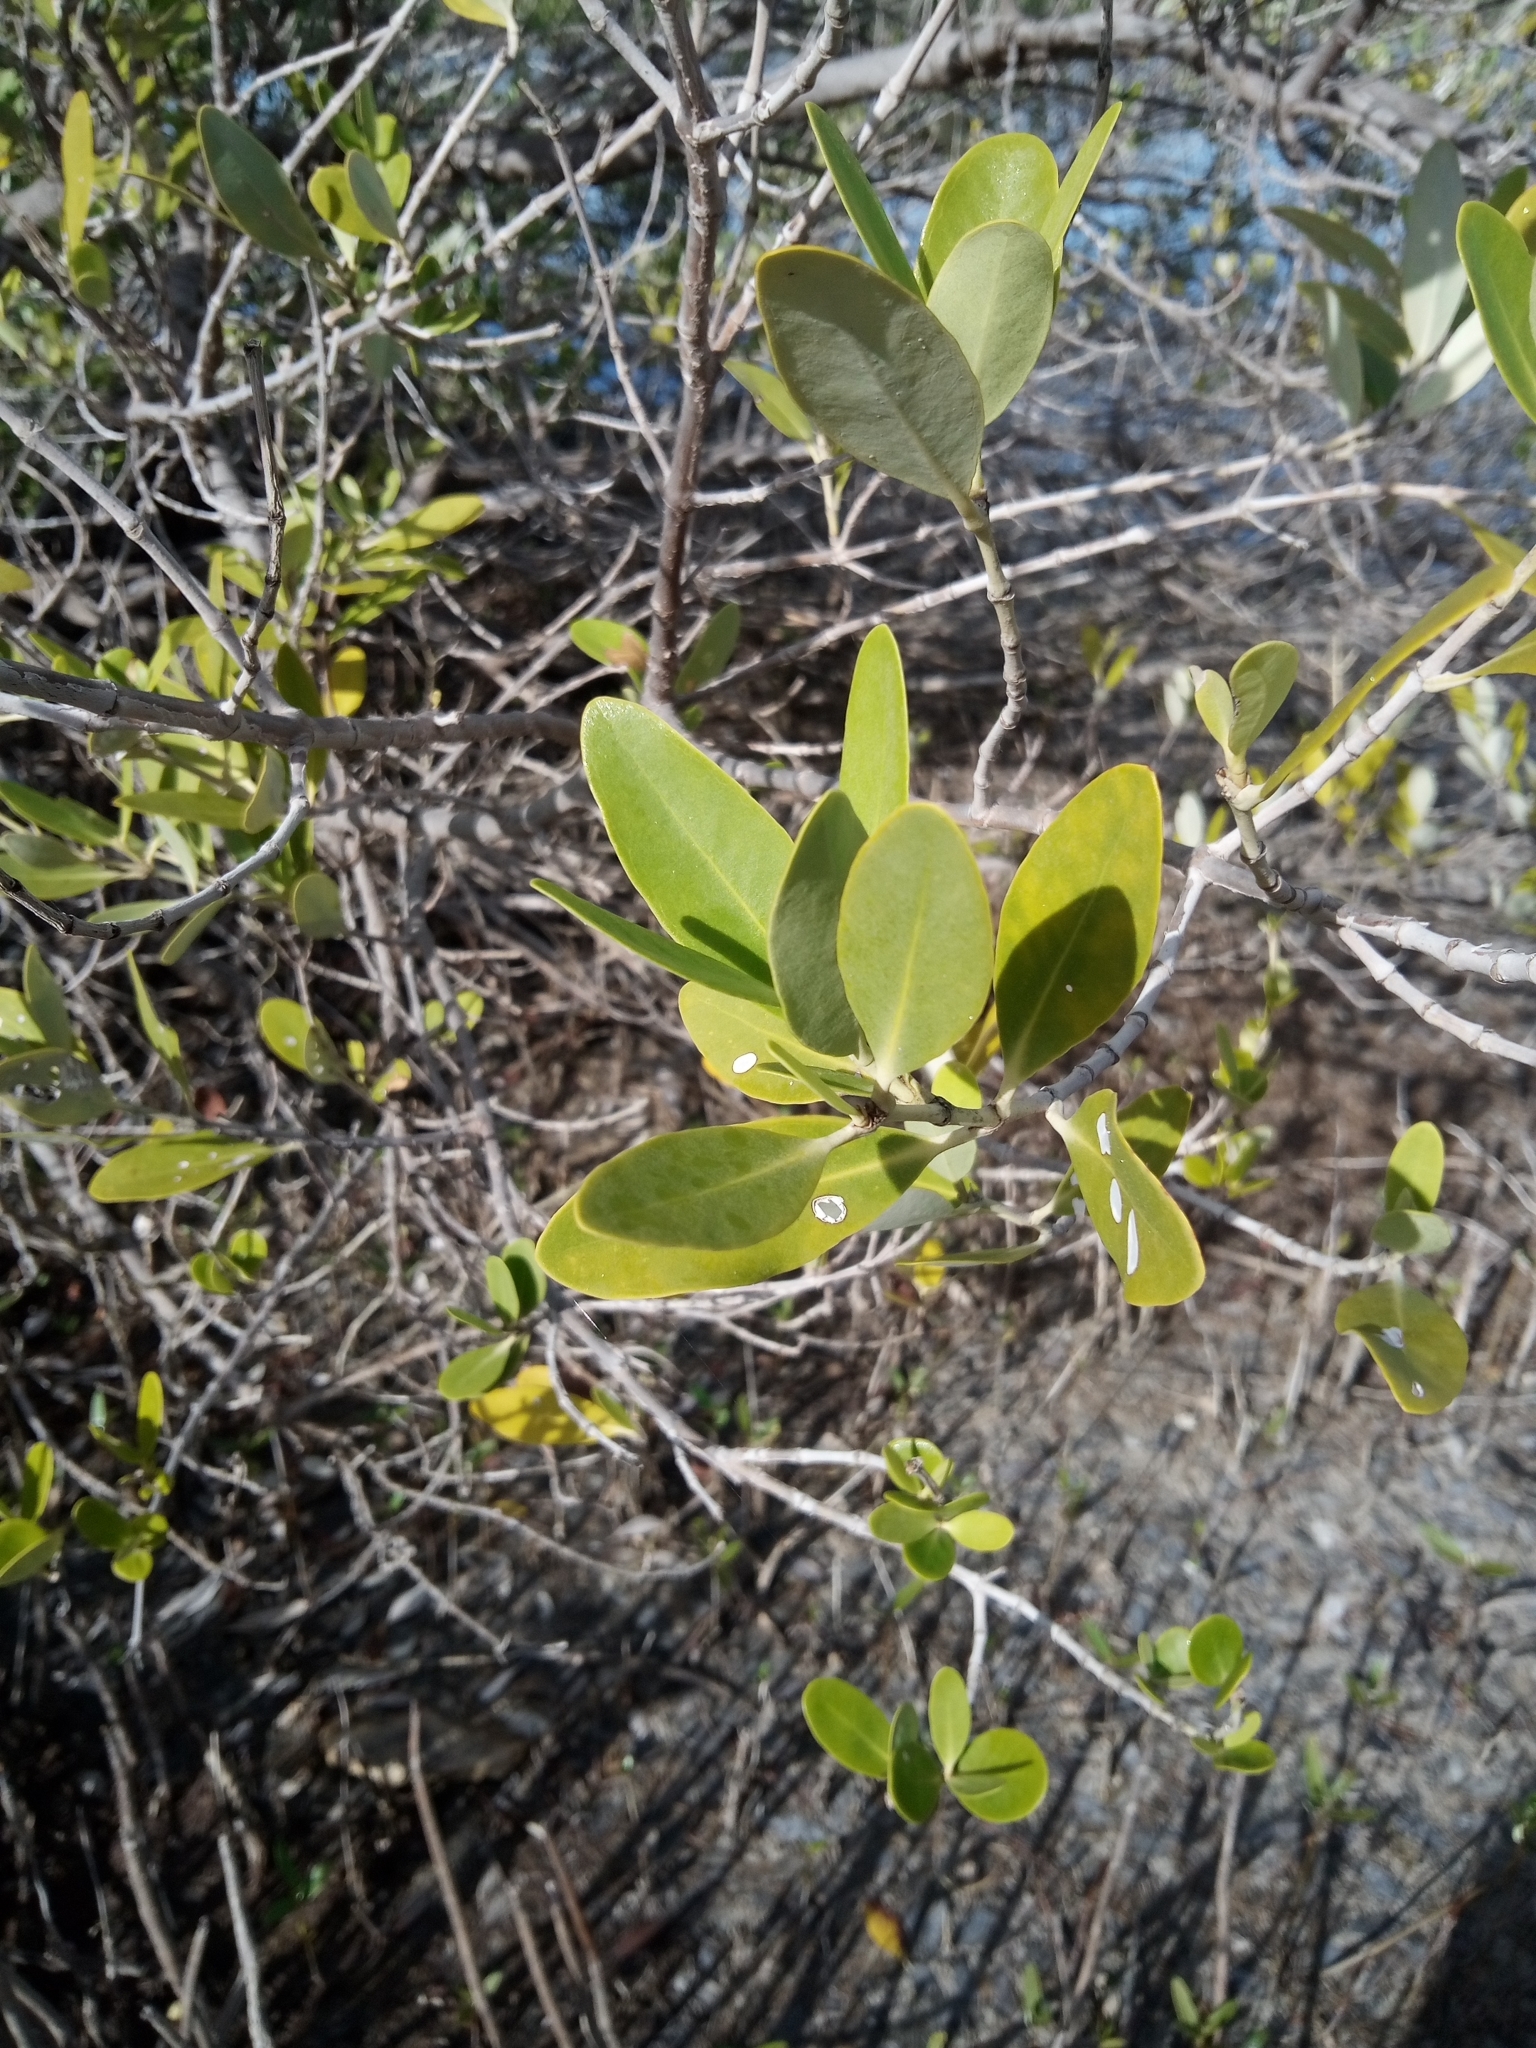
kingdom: Plantae
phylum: Tracheophyta
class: Magnoliopsida
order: Lamiales
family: Acanthaceae
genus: Avicennia
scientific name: Avicennia germinans
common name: Black mangrove
